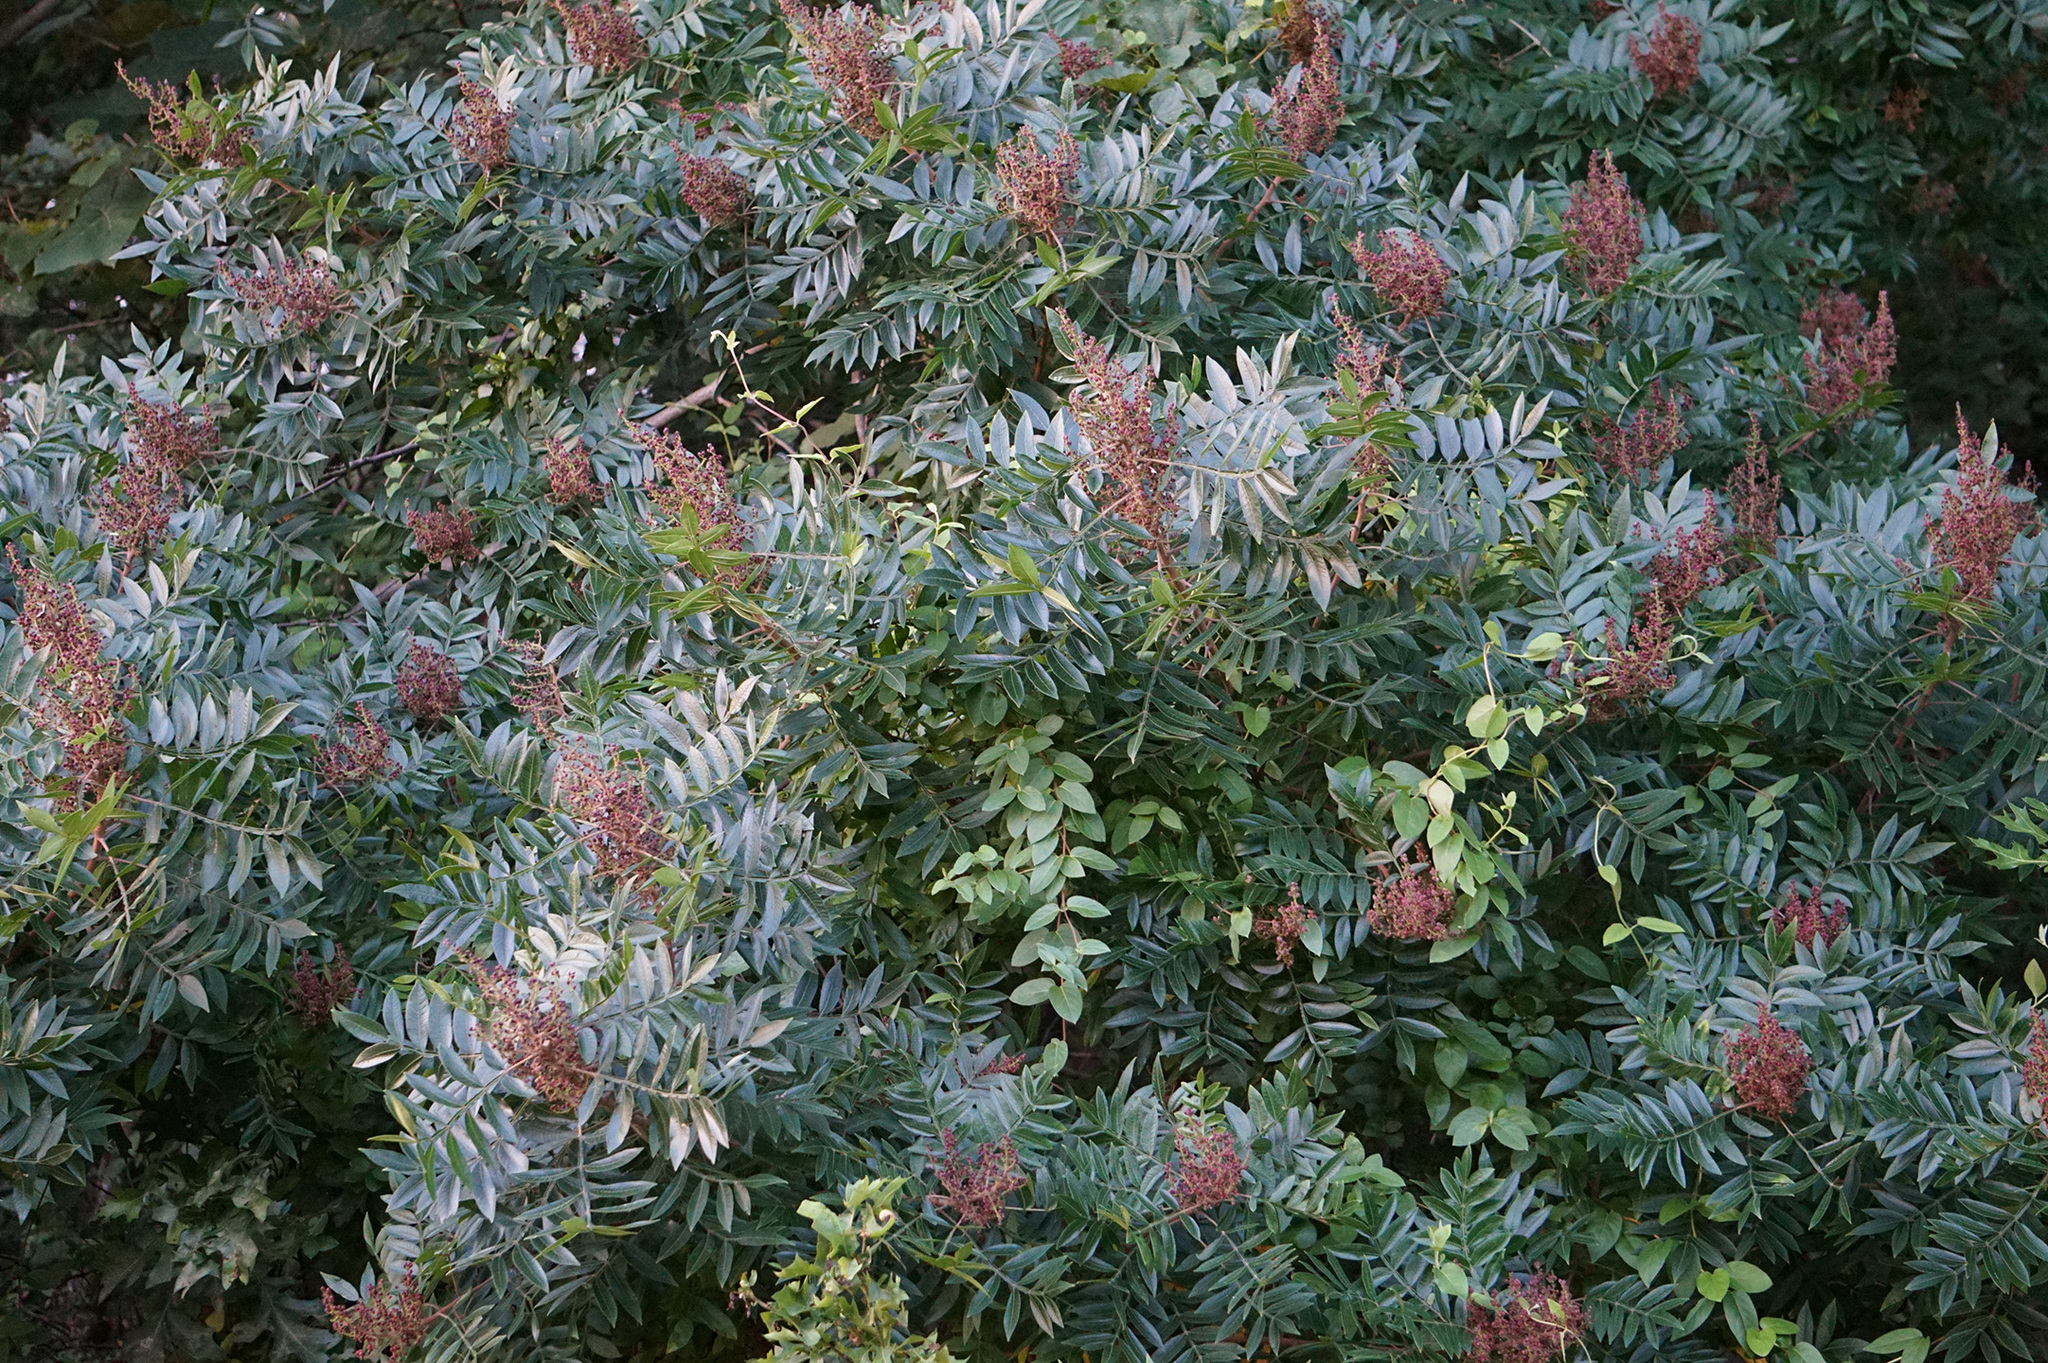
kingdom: Plantae
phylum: Tracheophyta
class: Magnoliopsida
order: Sapindales
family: Anacardiaceae
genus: Rhus
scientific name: Rhus copallina
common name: Shining sumac
